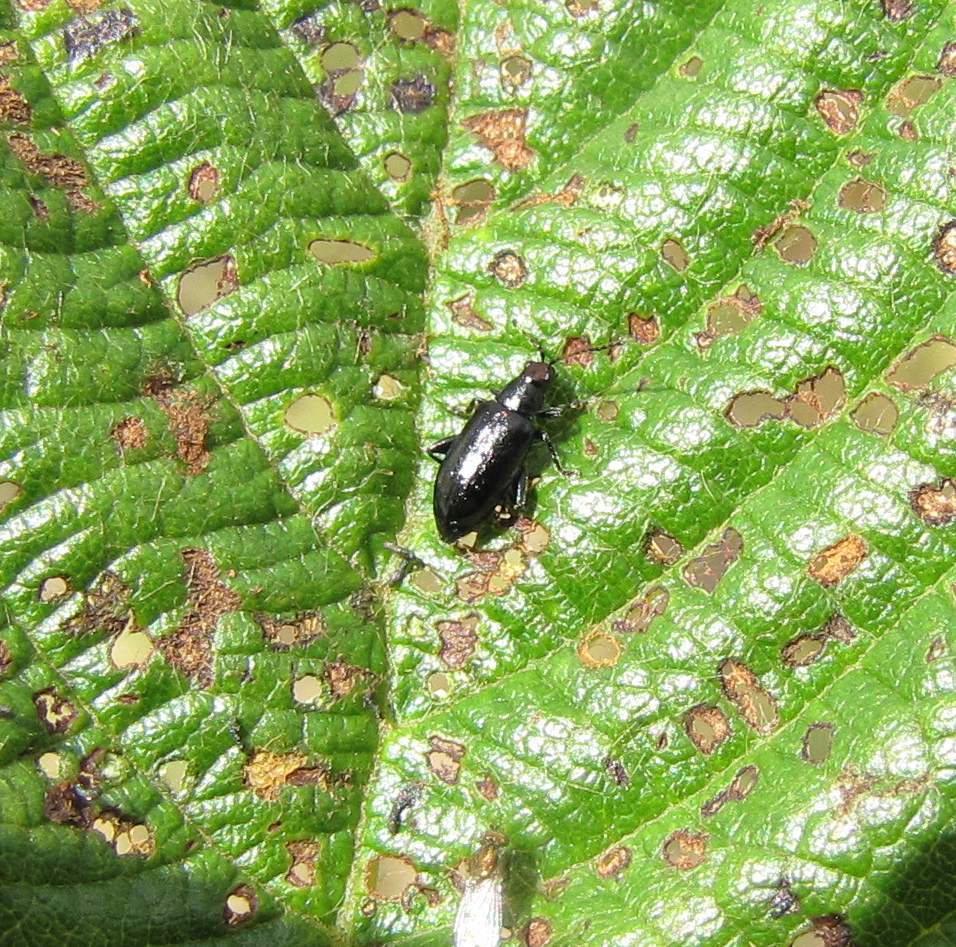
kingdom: Animalia
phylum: Arthropoda
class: Insecta
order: Coleoptera
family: Chrysomelidae
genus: Systena
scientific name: Systena frontalis
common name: Red-headed flea beetle
